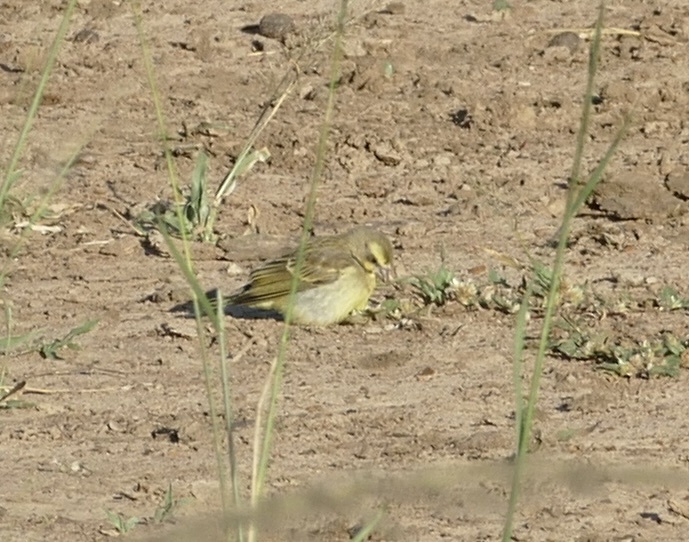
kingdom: Animalia
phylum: Chordata
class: Aves
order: Passeriformes
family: Fringillidae
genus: Crithagra
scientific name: Crithagra mozambica
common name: Yellow-fronted canary
